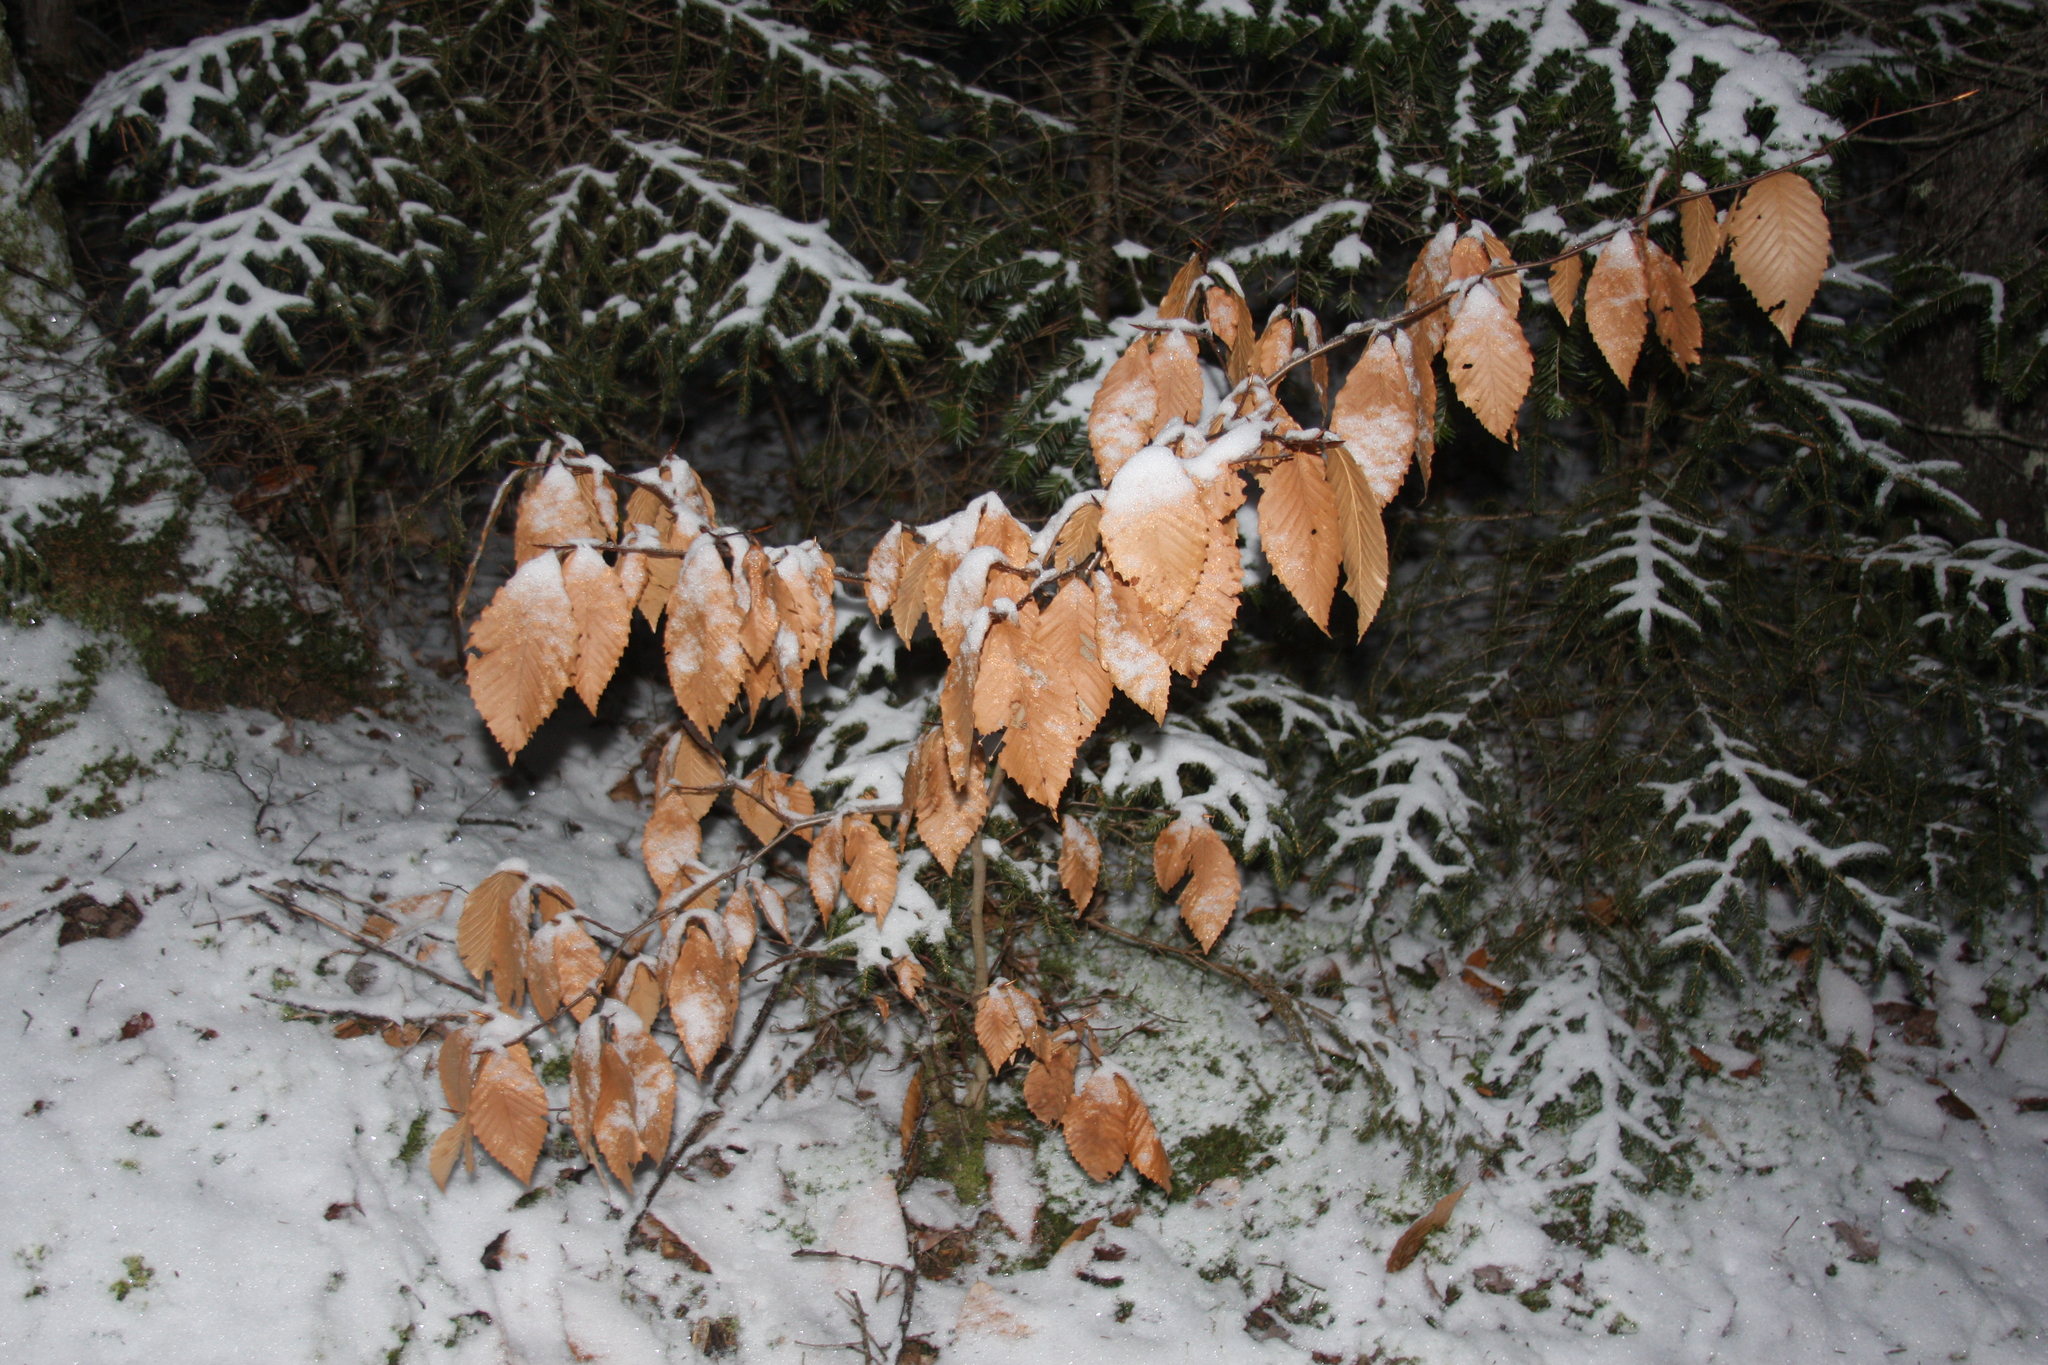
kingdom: Plantae
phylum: Tracheophyta
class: Magnoliopsida
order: Fagales
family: Fagaceae
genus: Fagus
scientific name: Fagus grandifolia
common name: American beech
